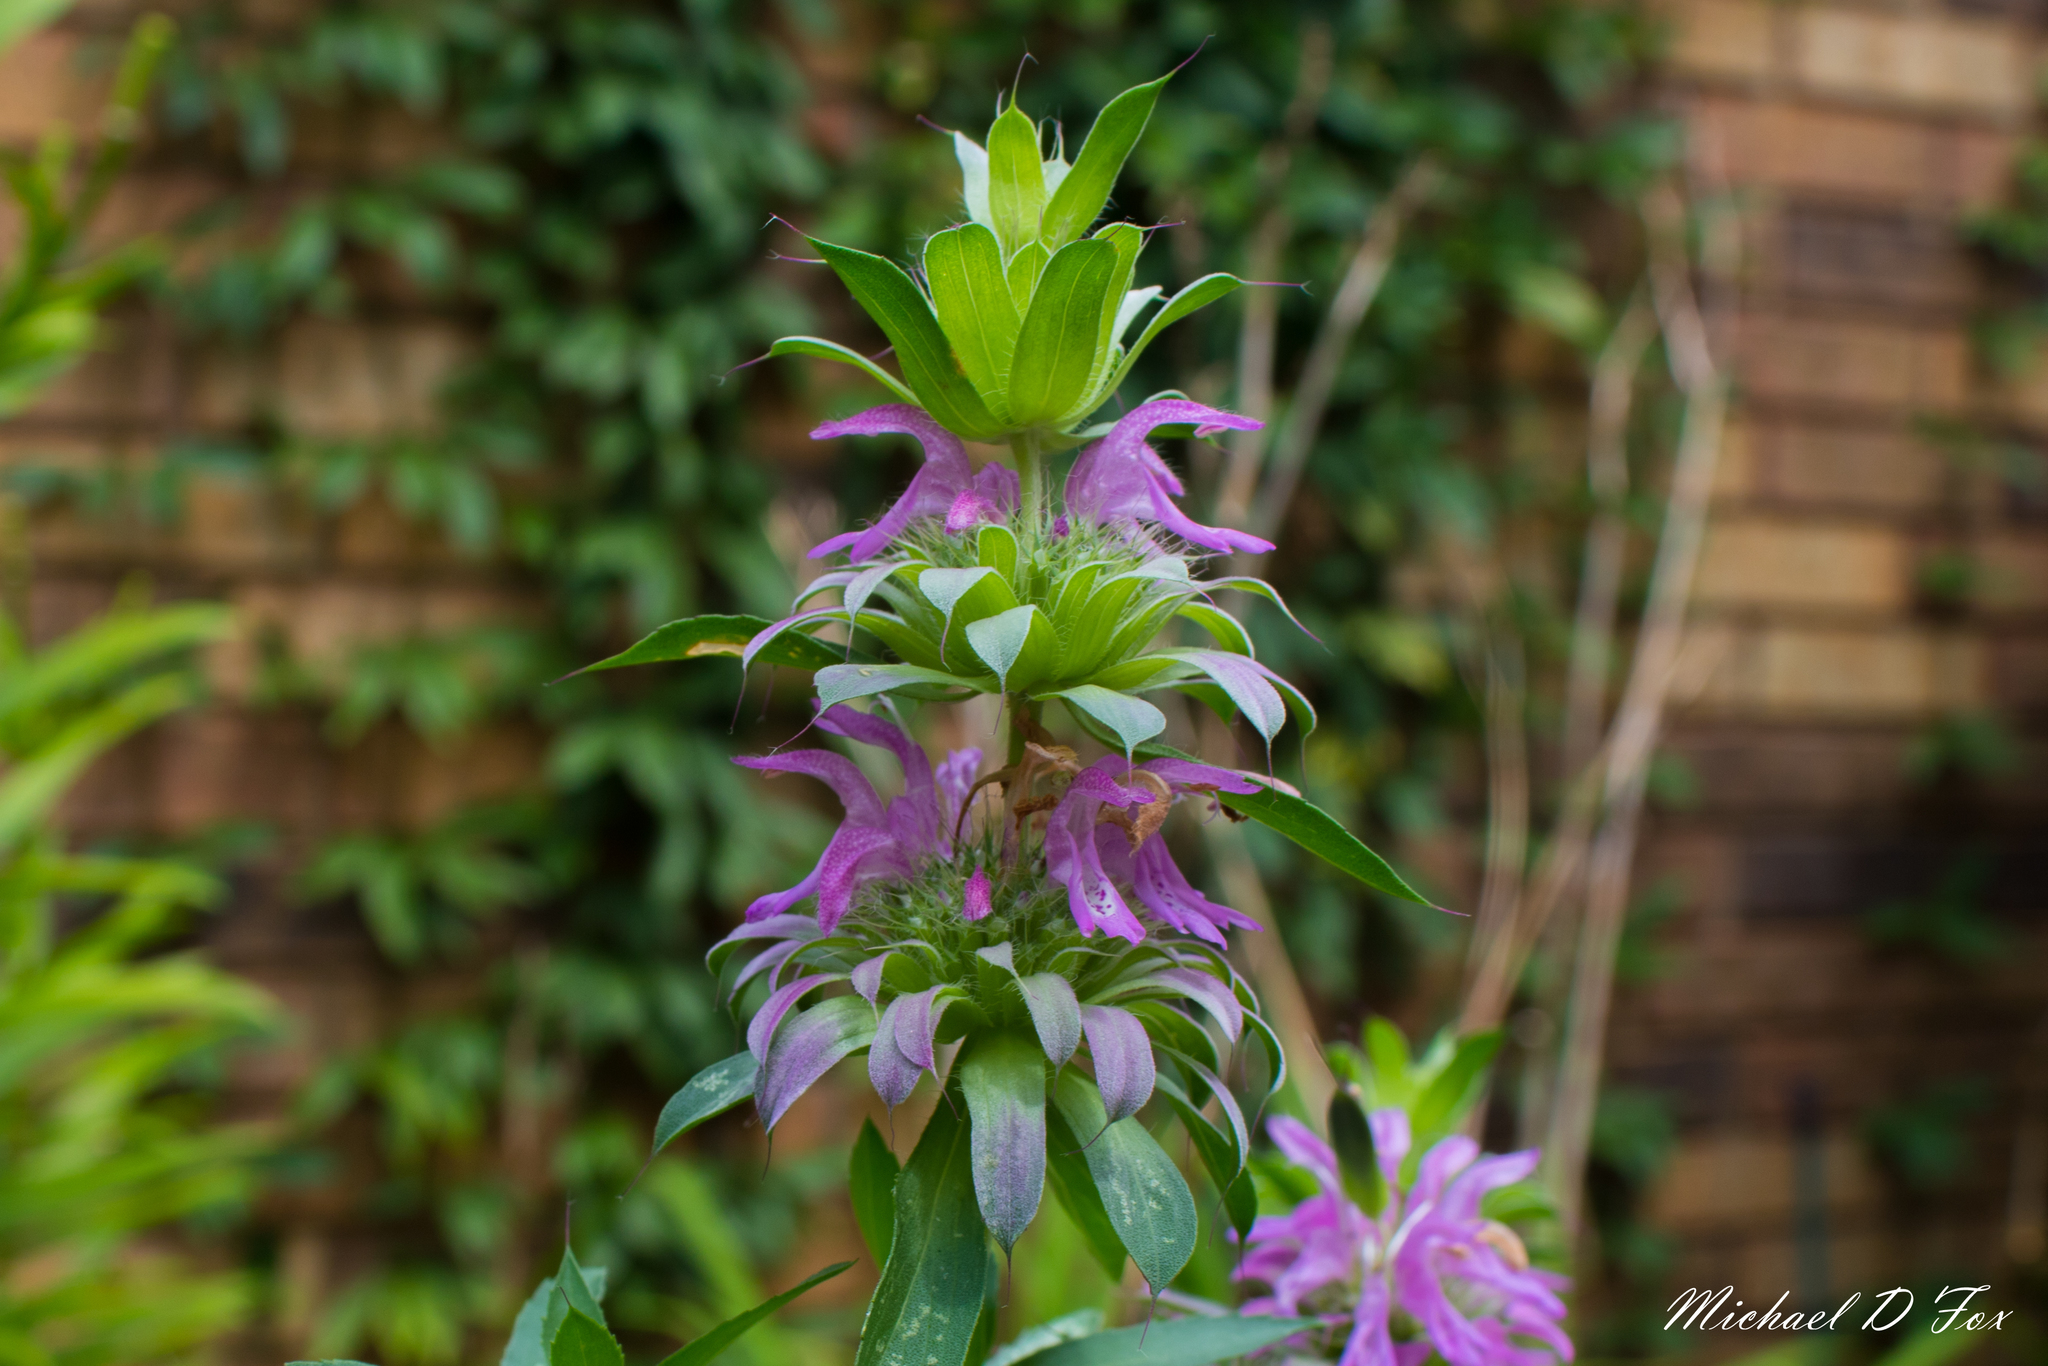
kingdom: Plantae
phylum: Tracheophyta
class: Magnoliopsida
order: Lamiales
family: Lamiaceae
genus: Monarda
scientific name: Monarda citriodora
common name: Lemon beebalm
